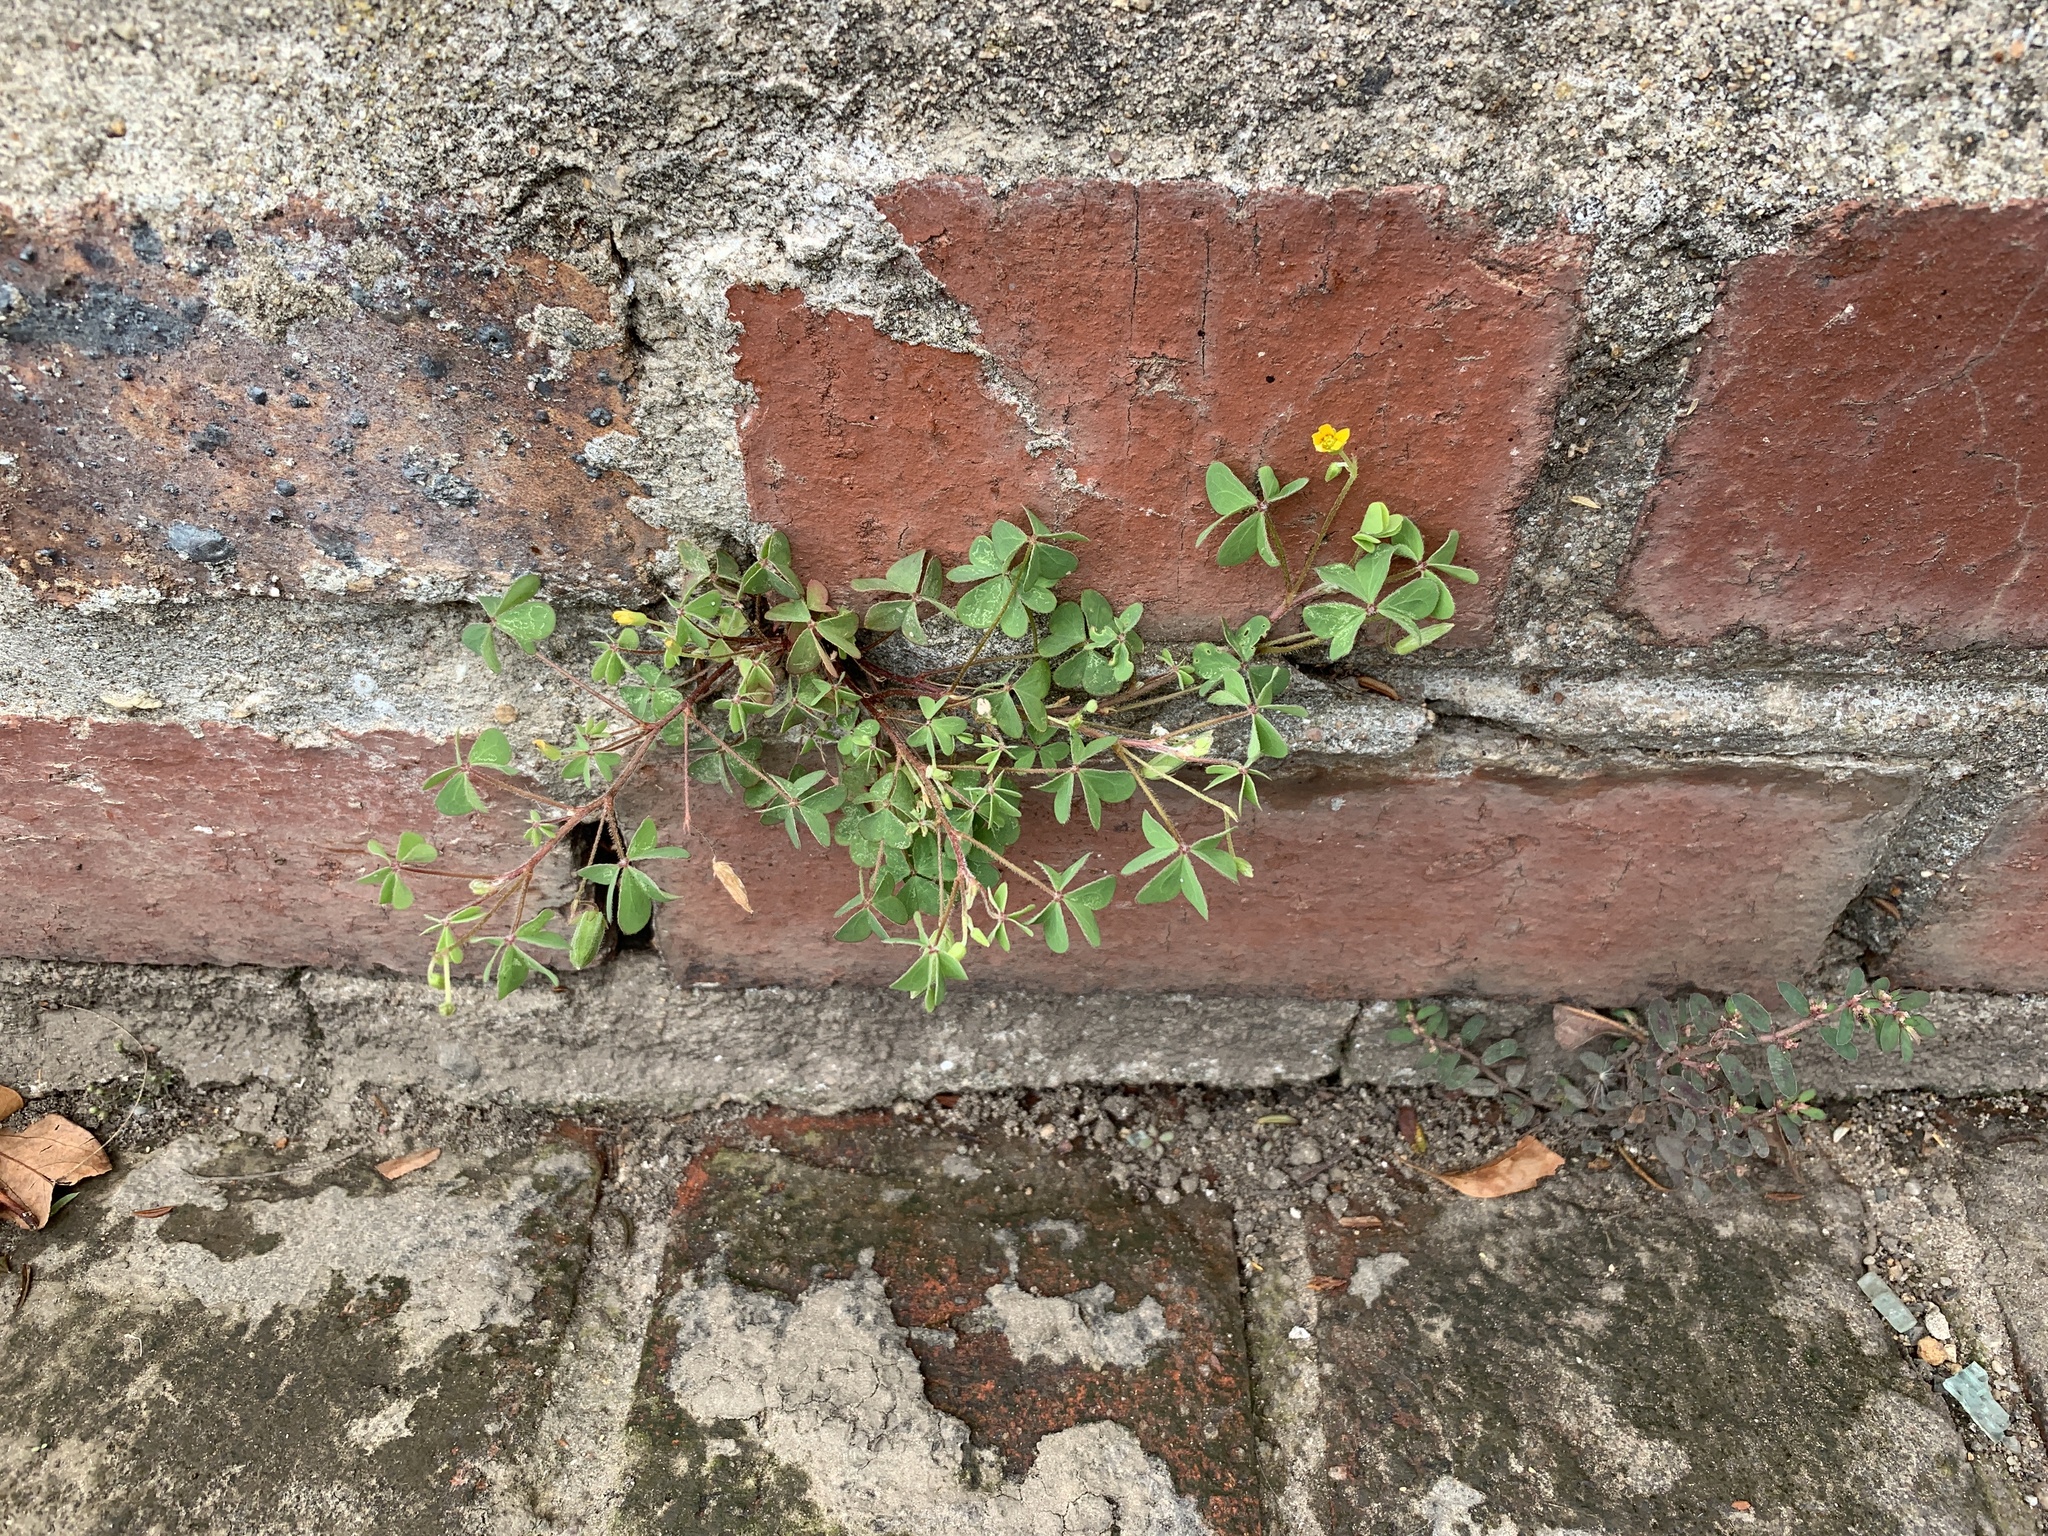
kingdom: Plantae
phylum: Tracheophyta
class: Magnoliopsida
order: Oxalidales
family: Oxalidaceae
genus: Oxalis
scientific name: Oxalis corniculata
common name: Procumbent yellow-sorrel
